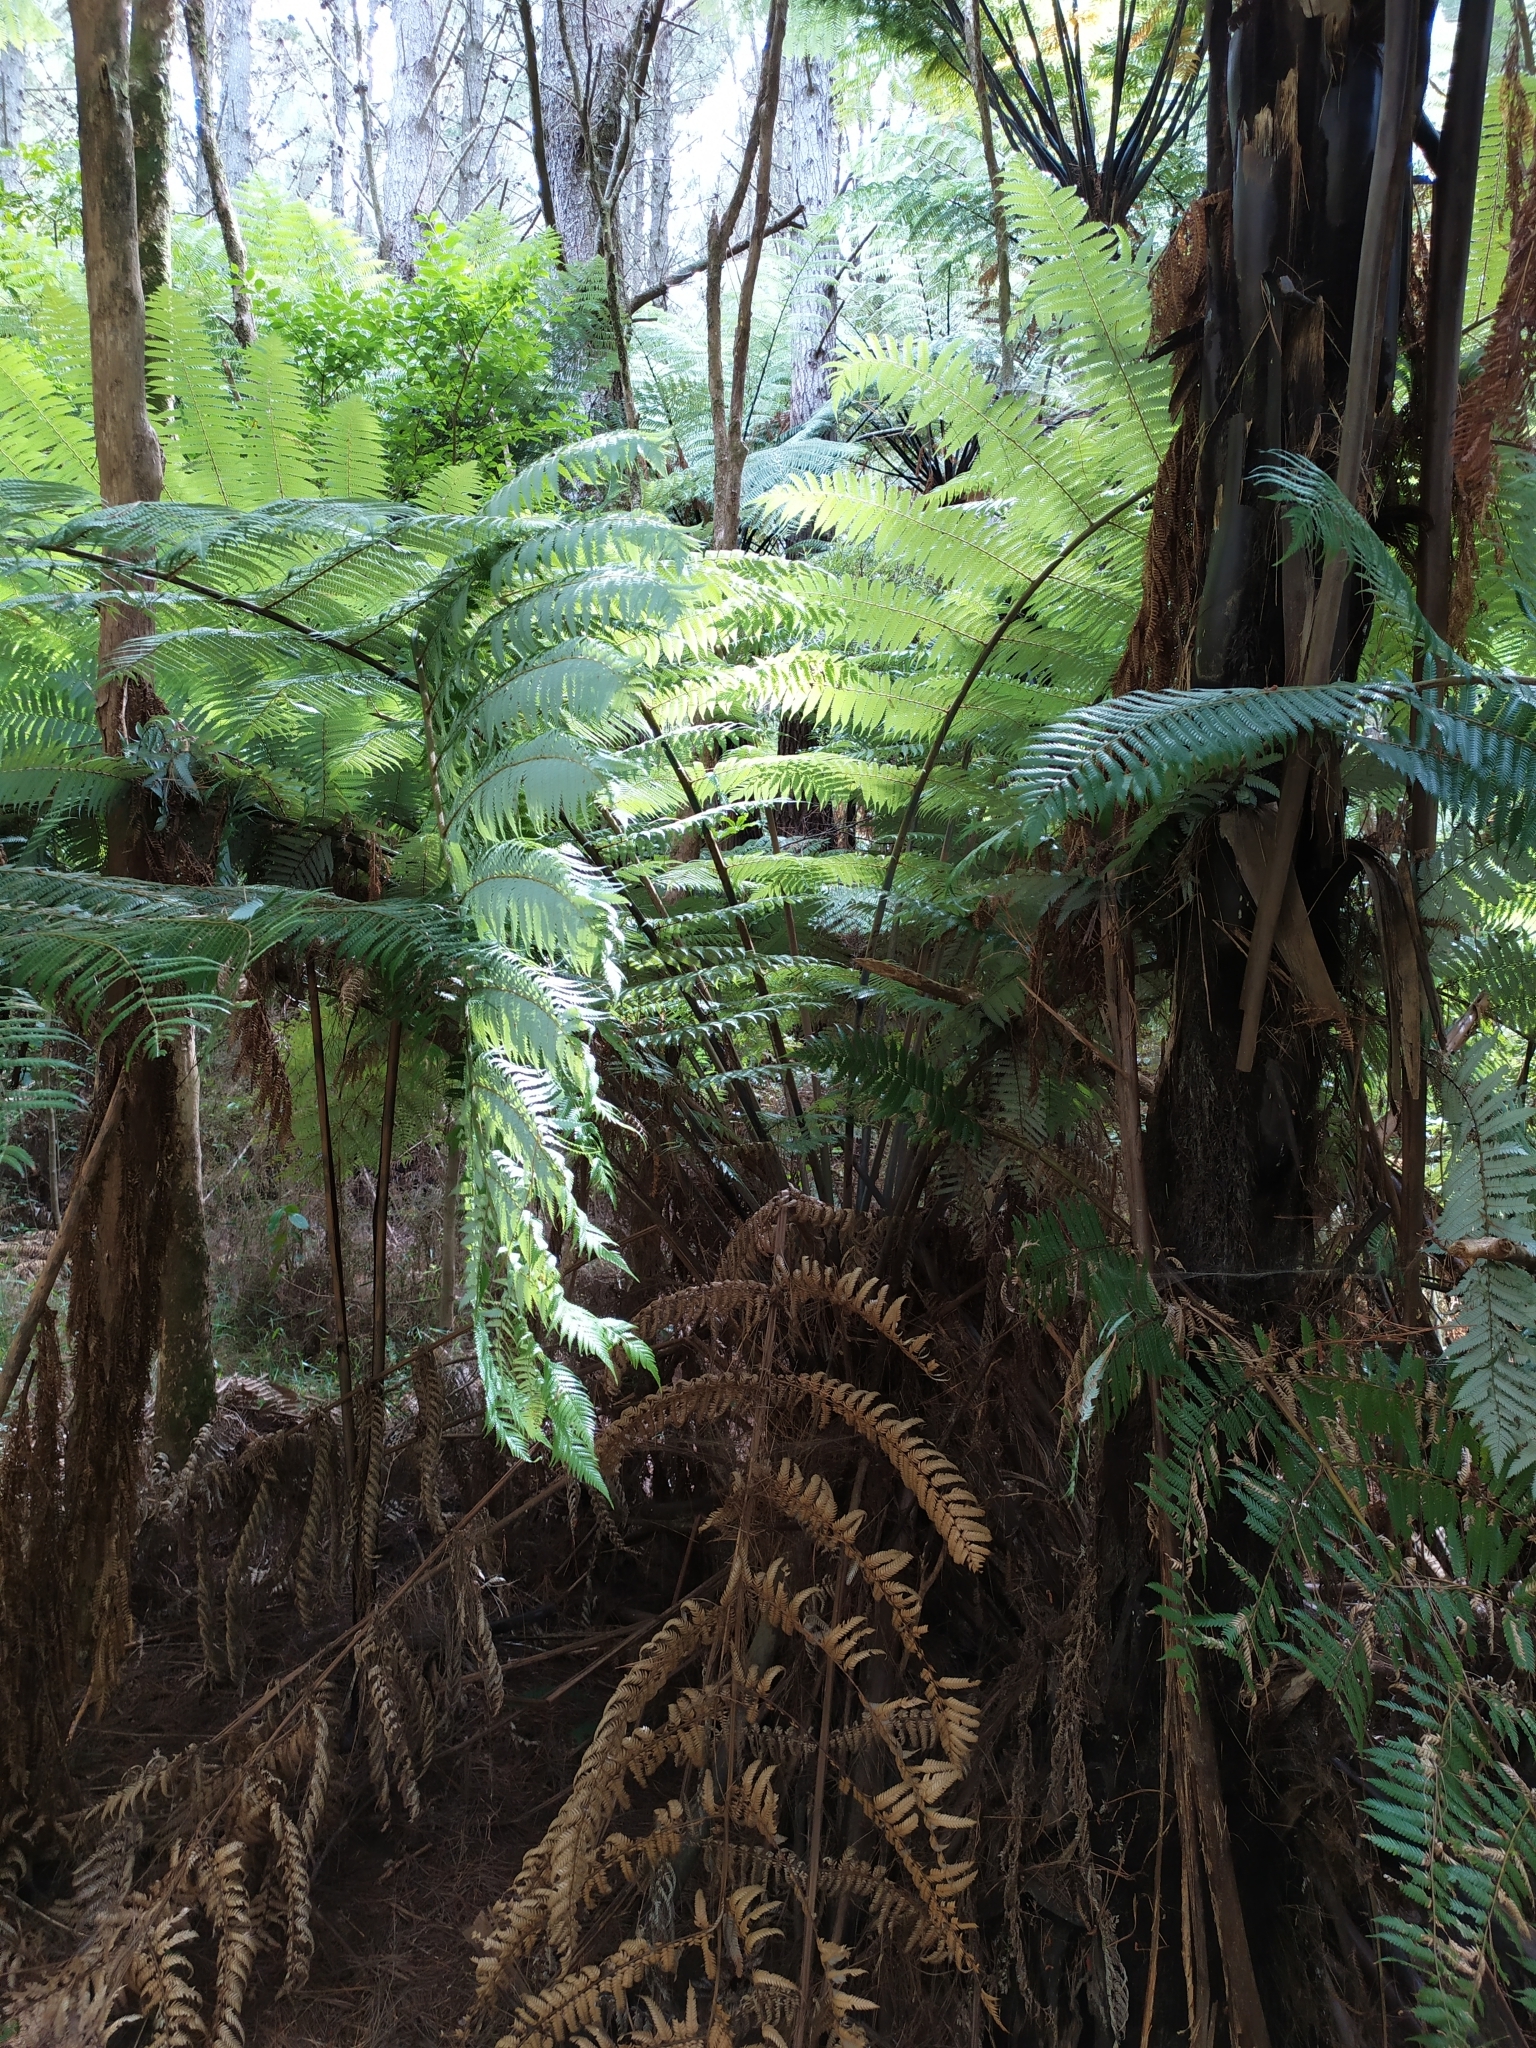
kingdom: Plantae
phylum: Tracheophyta
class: Polypodiopsida
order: Cyatheales
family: Cyatheaceae
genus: Alsophila
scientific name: Alsophila dealbata
